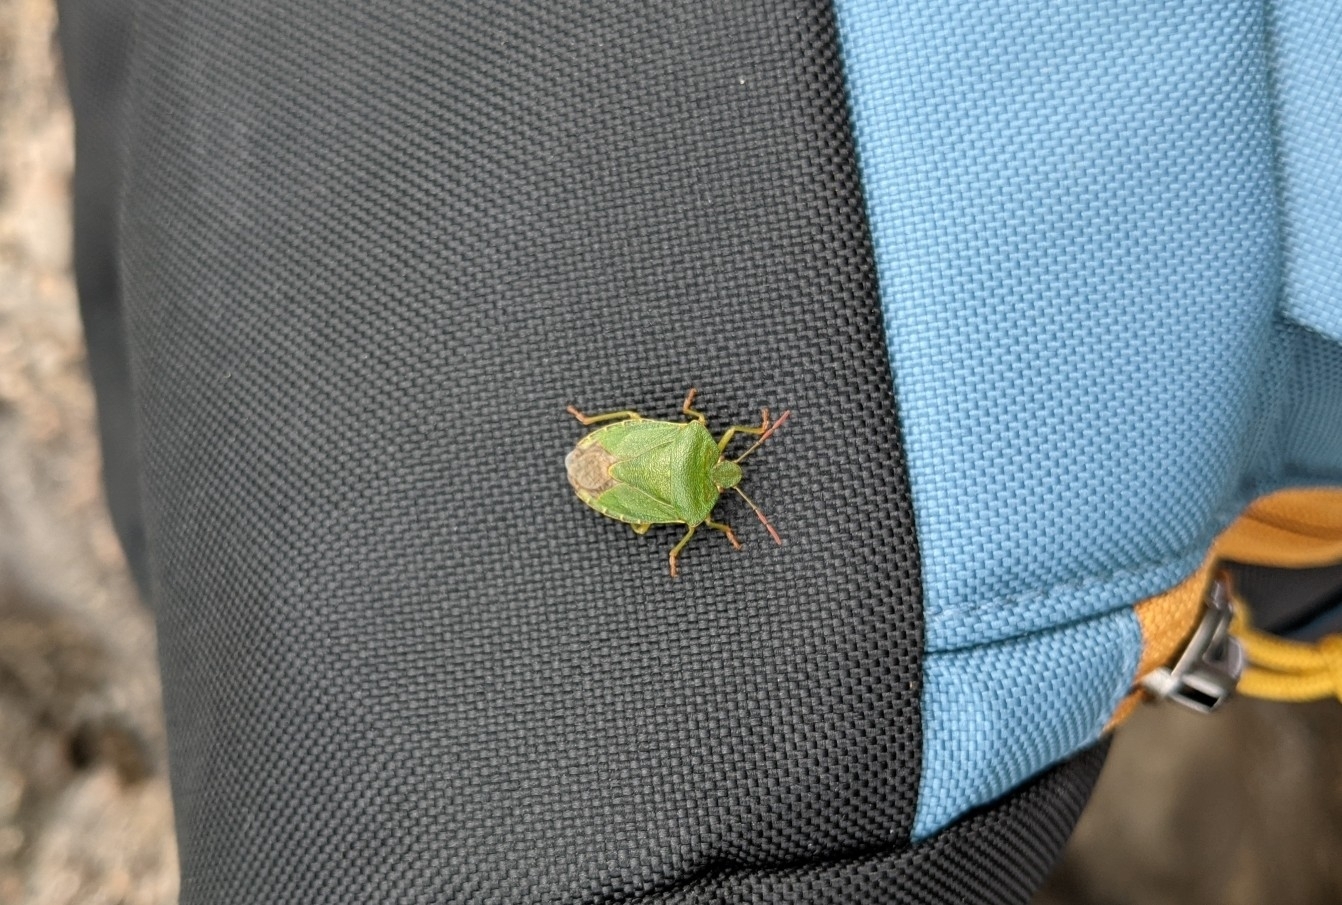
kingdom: Animalia
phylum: Arthropoda
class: Insecta
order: Hemiptera
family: Pentatomidae
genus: Palomena
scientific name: Palomena prasina
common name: Green shieldbug
